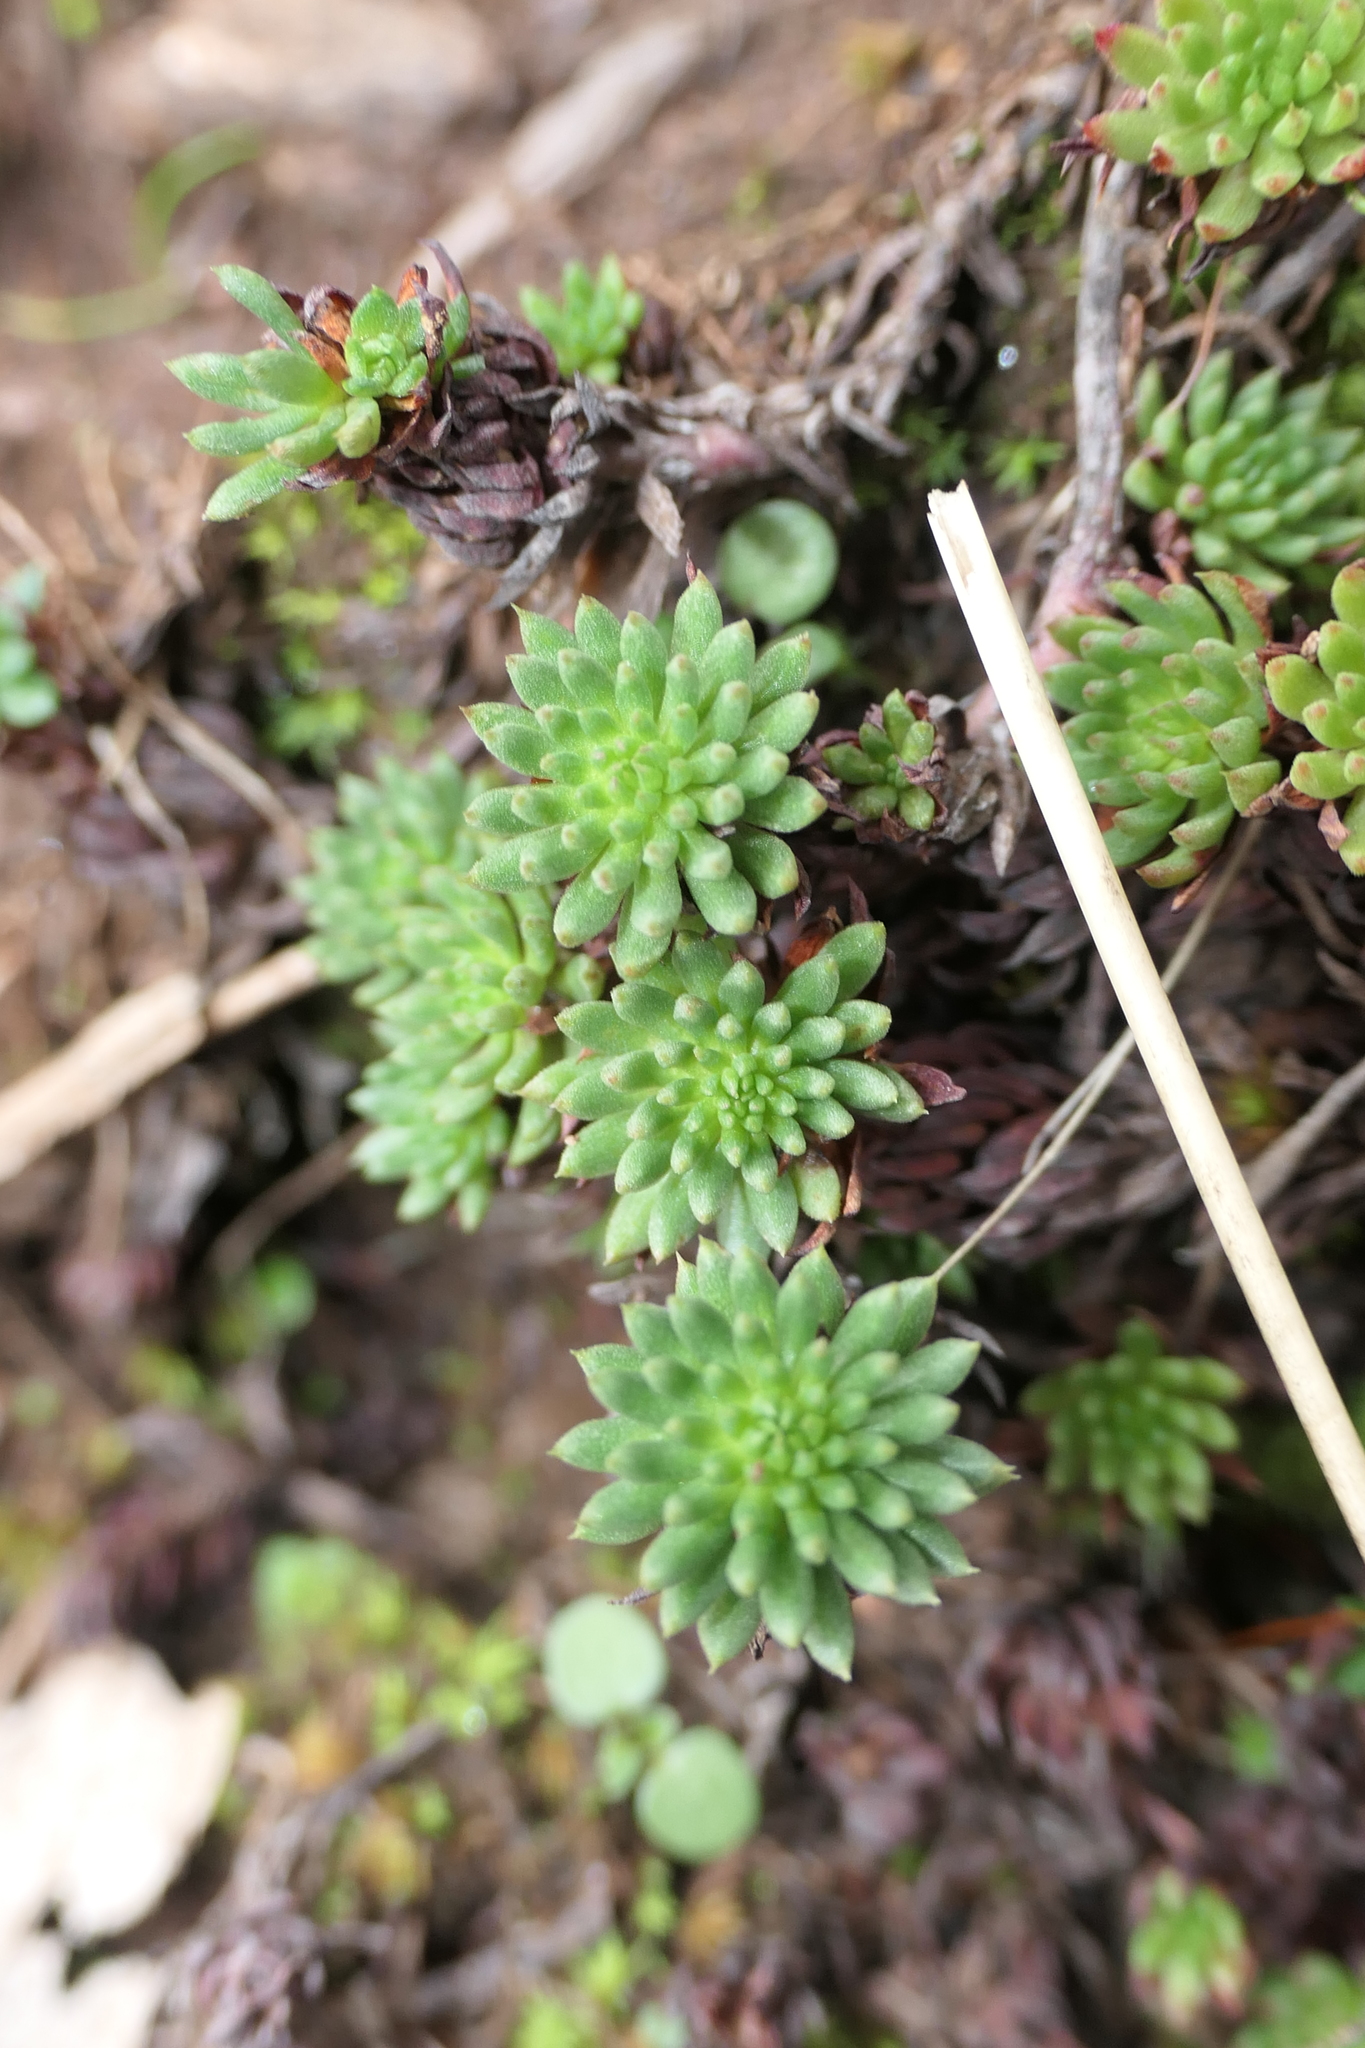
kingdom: Plantae
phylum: Tracheophyta
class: Magnoliopsida
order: Saxifragales
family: Crassulaceae
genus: Petrosedum
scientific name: Petrosedum forsterianum
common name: Forster's stonecrop
